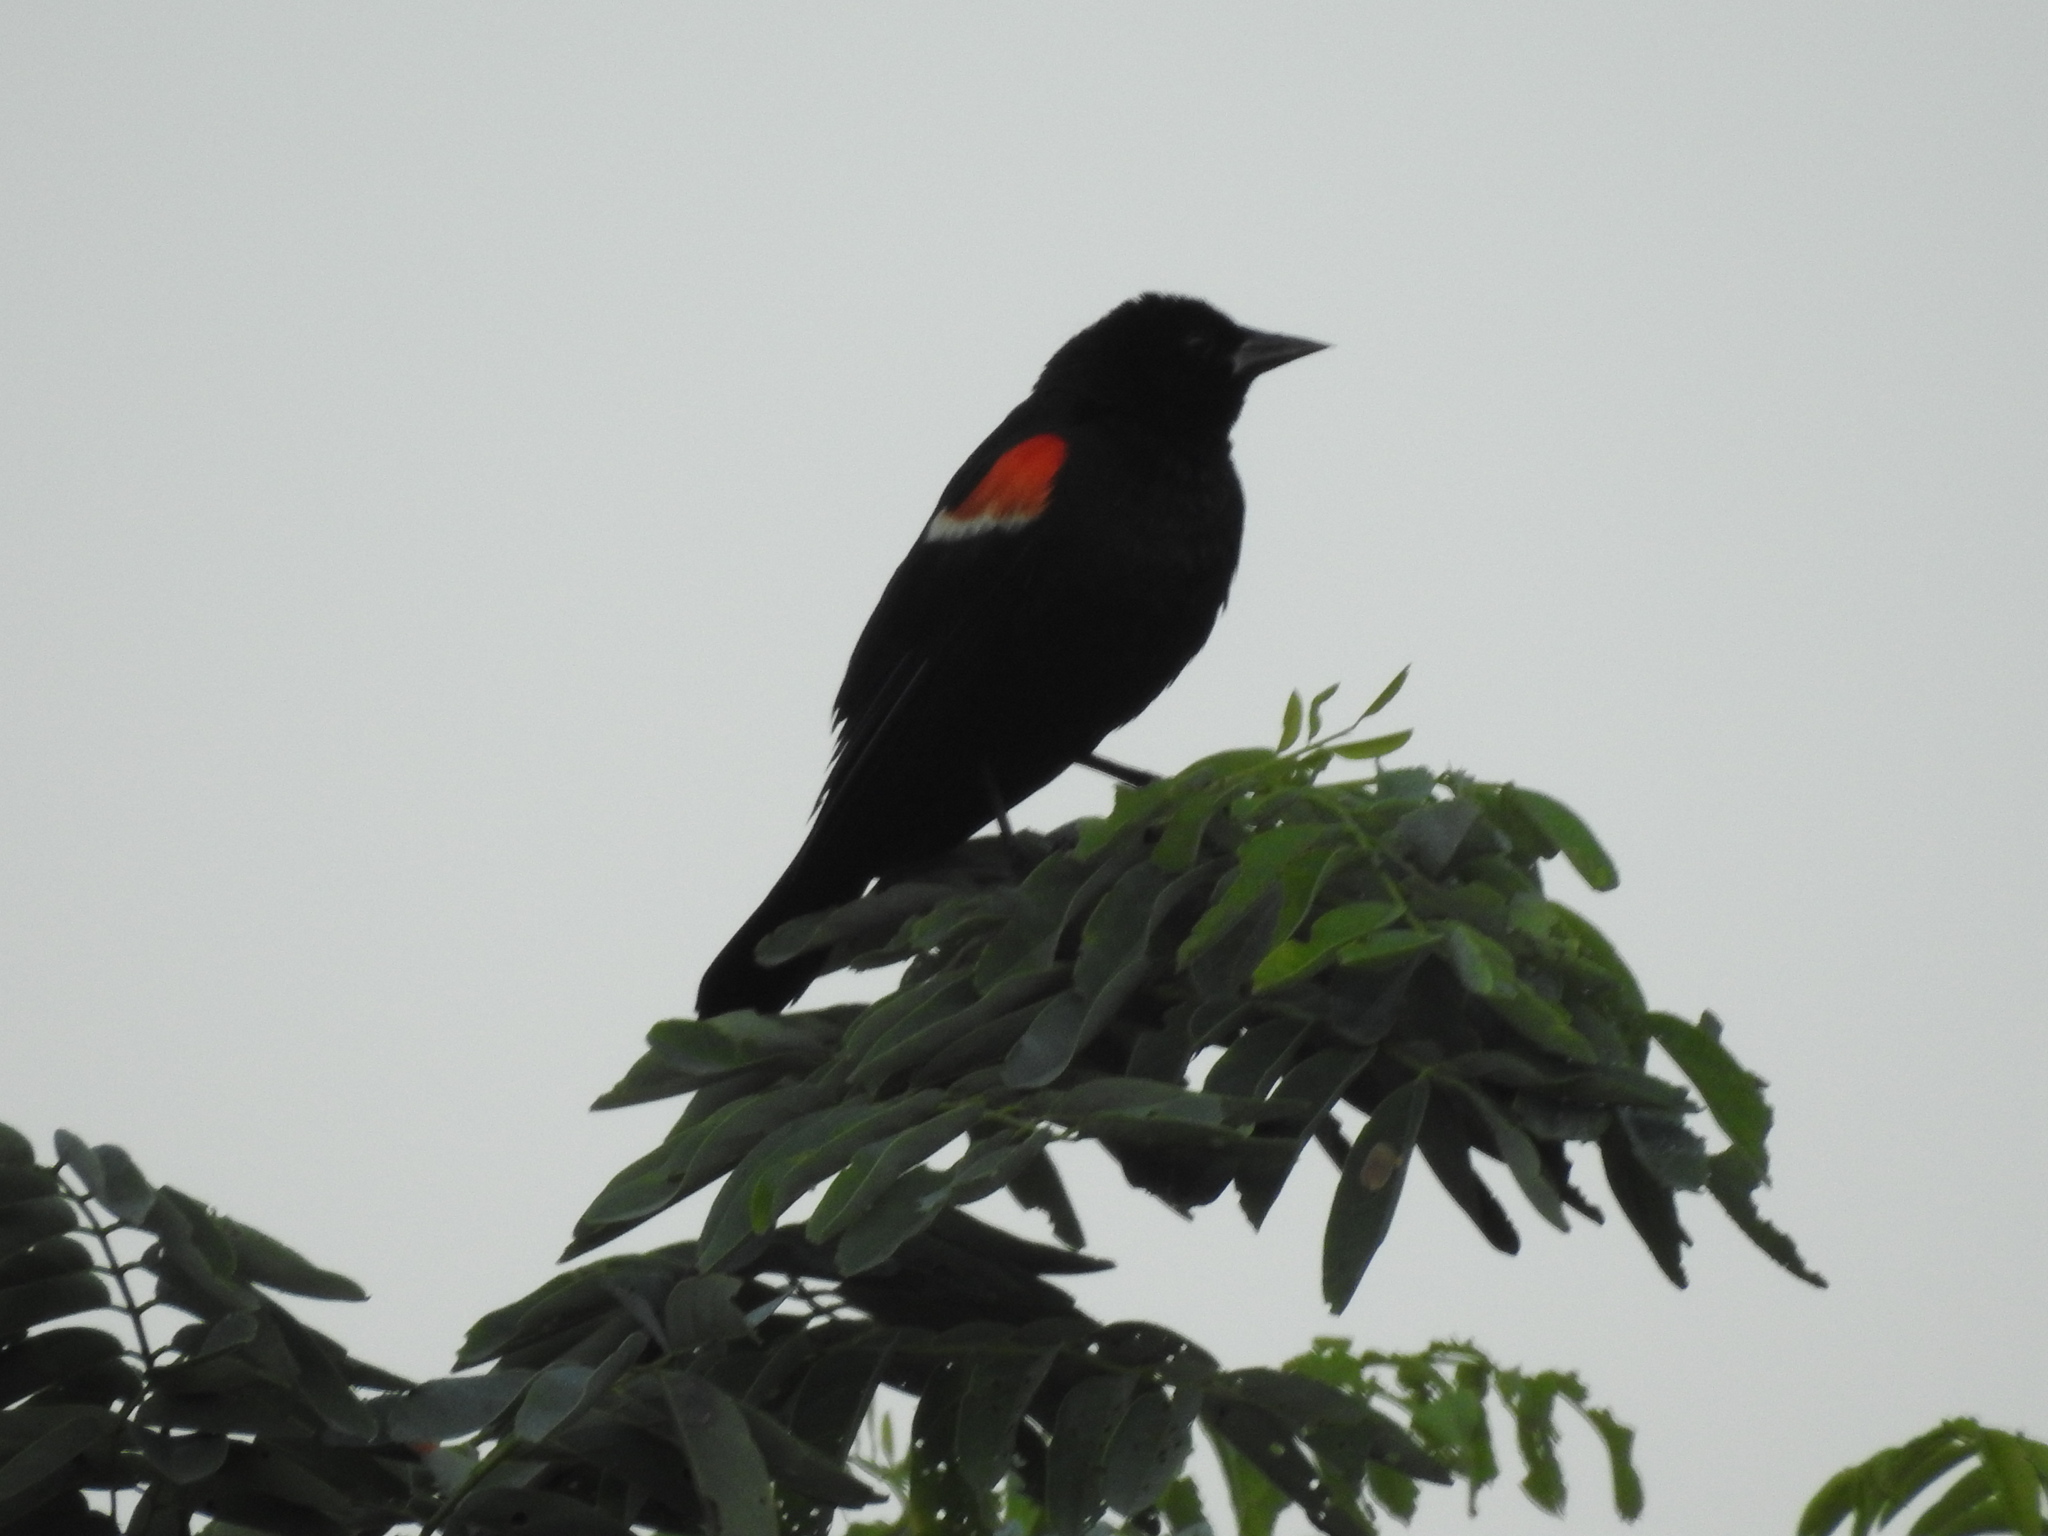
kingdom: Animalia
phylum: Chordata
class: Aves
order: Passeriformes
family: Icteridae
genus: Agelaius
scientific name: Agelaius phoeniceus
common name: Red-winged blackbird
